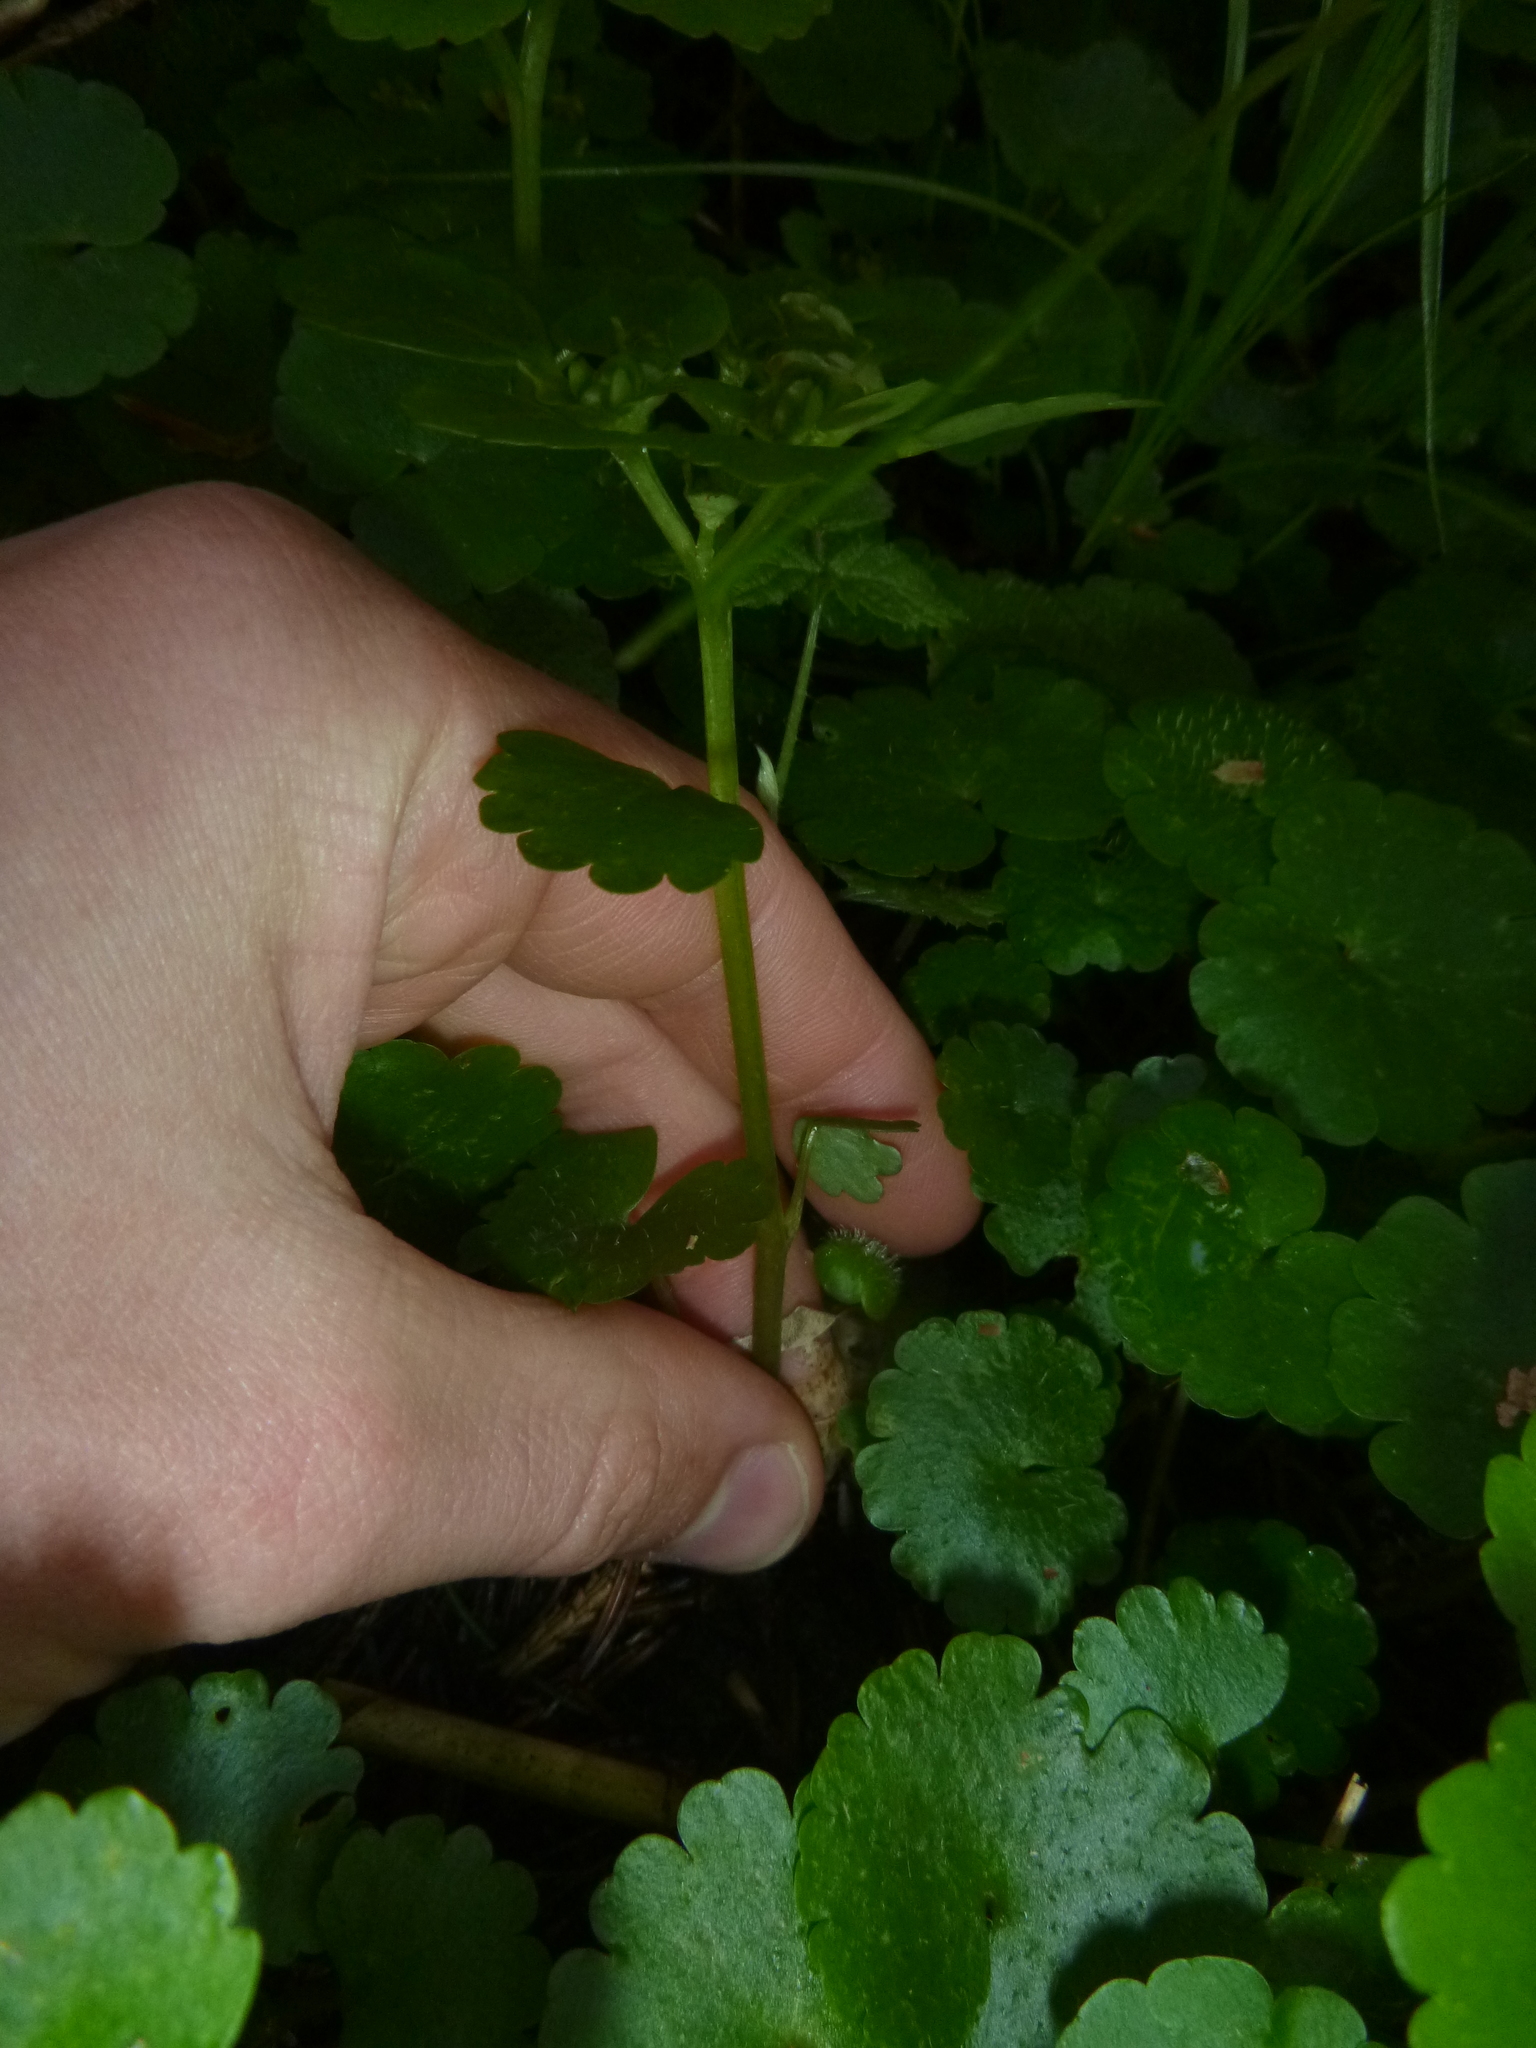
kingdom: Plantae
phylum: Tracheophyta
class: Magnoliopsida
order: Saxifragales
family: Saxifragaceae
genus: Chrysosplenium
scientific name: Chrysosplenium alternifolium
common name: Alternate-leaved golden-saxifrage
